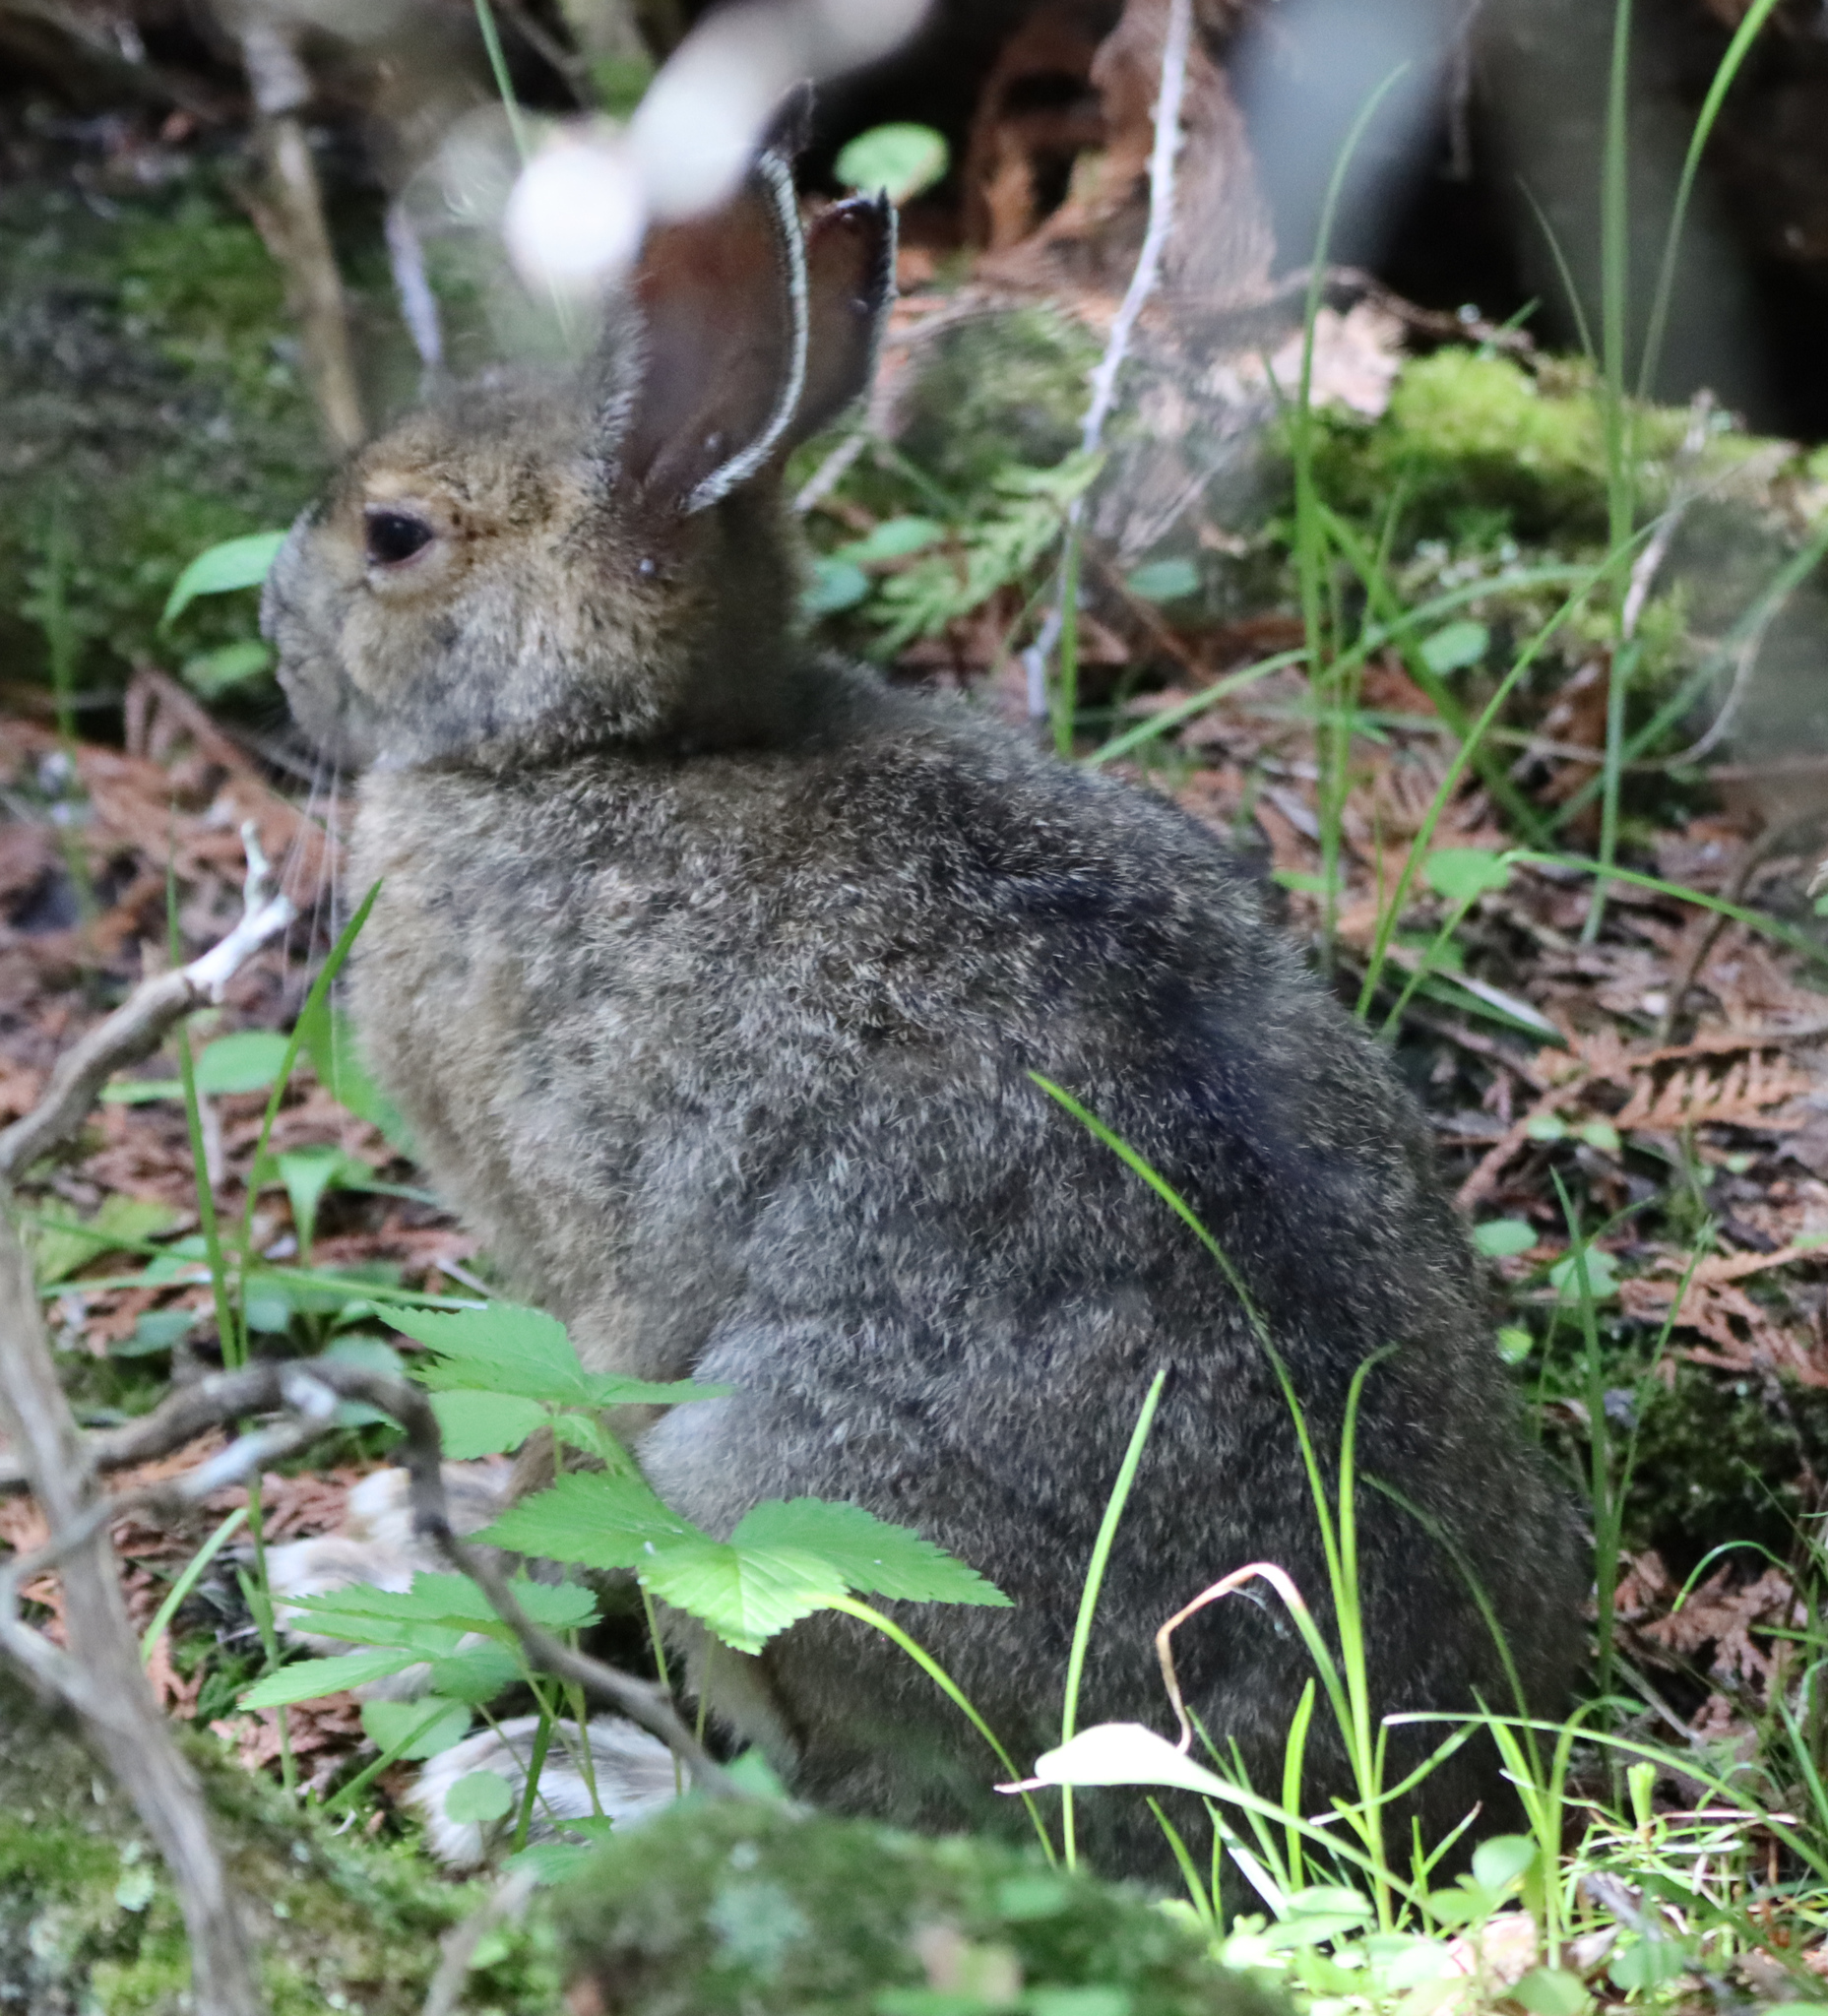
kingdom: Animalia
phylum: Chordata
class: Mammalia
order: Lagomorpha
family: Leporidae
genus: Lepus
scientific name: Lepus americanus
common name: Snowshoe hare
